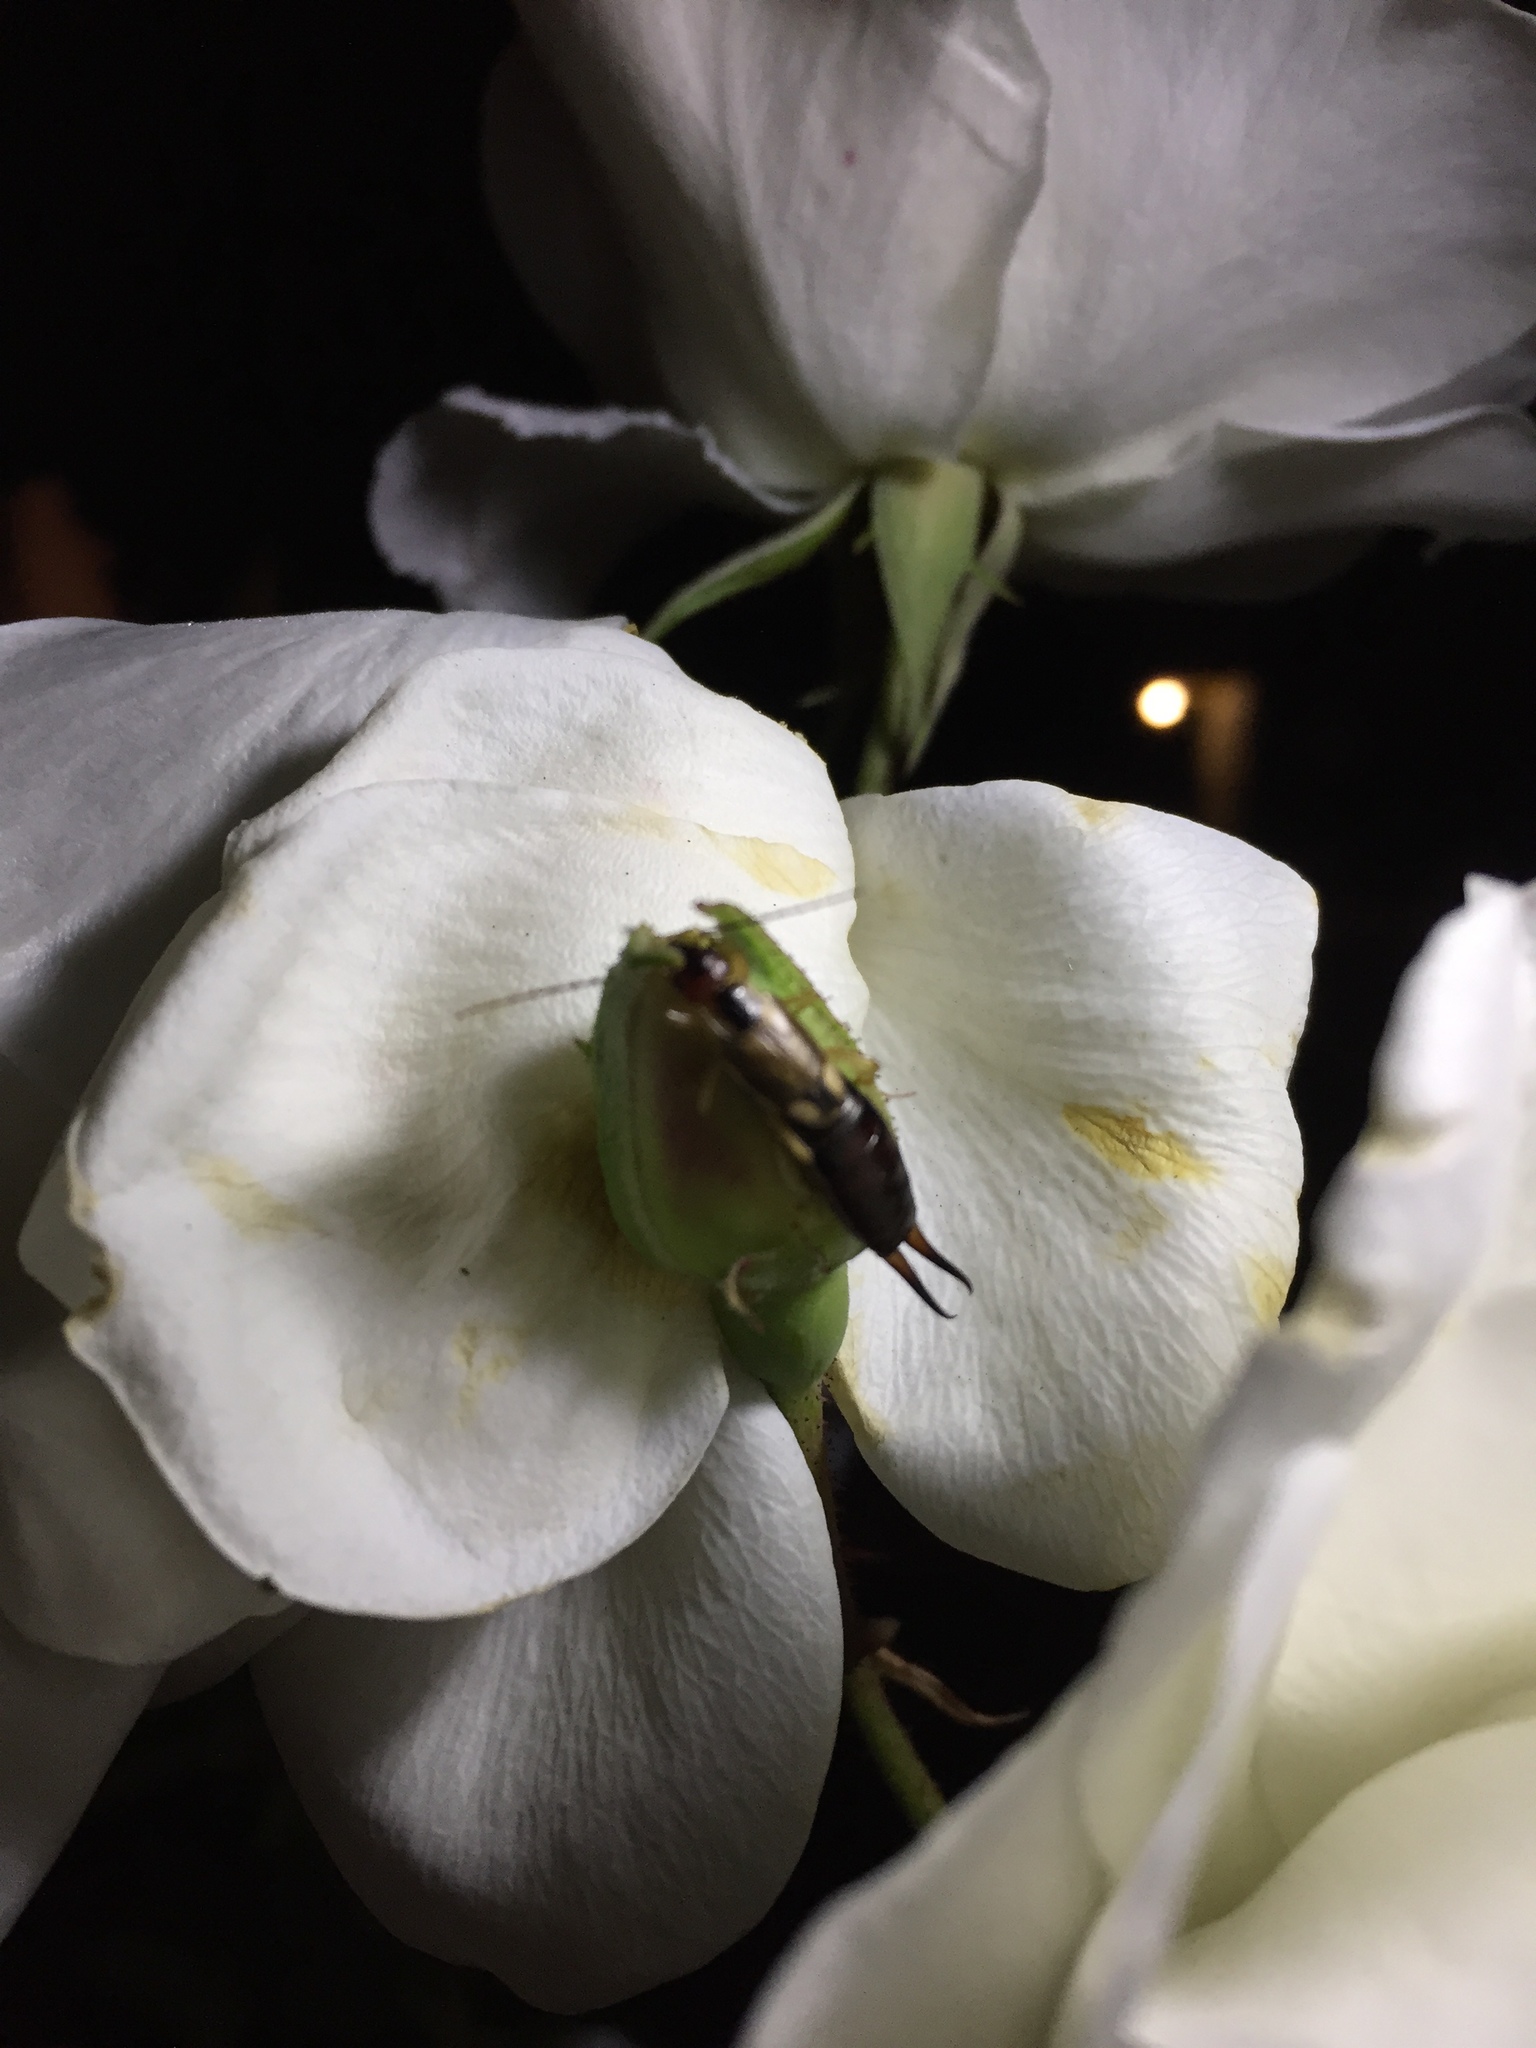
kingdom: Animalia
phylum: Arthropoda
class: Insecta
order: Dermaptera
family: Forficulidae
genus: Forficula
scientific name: Forficula
